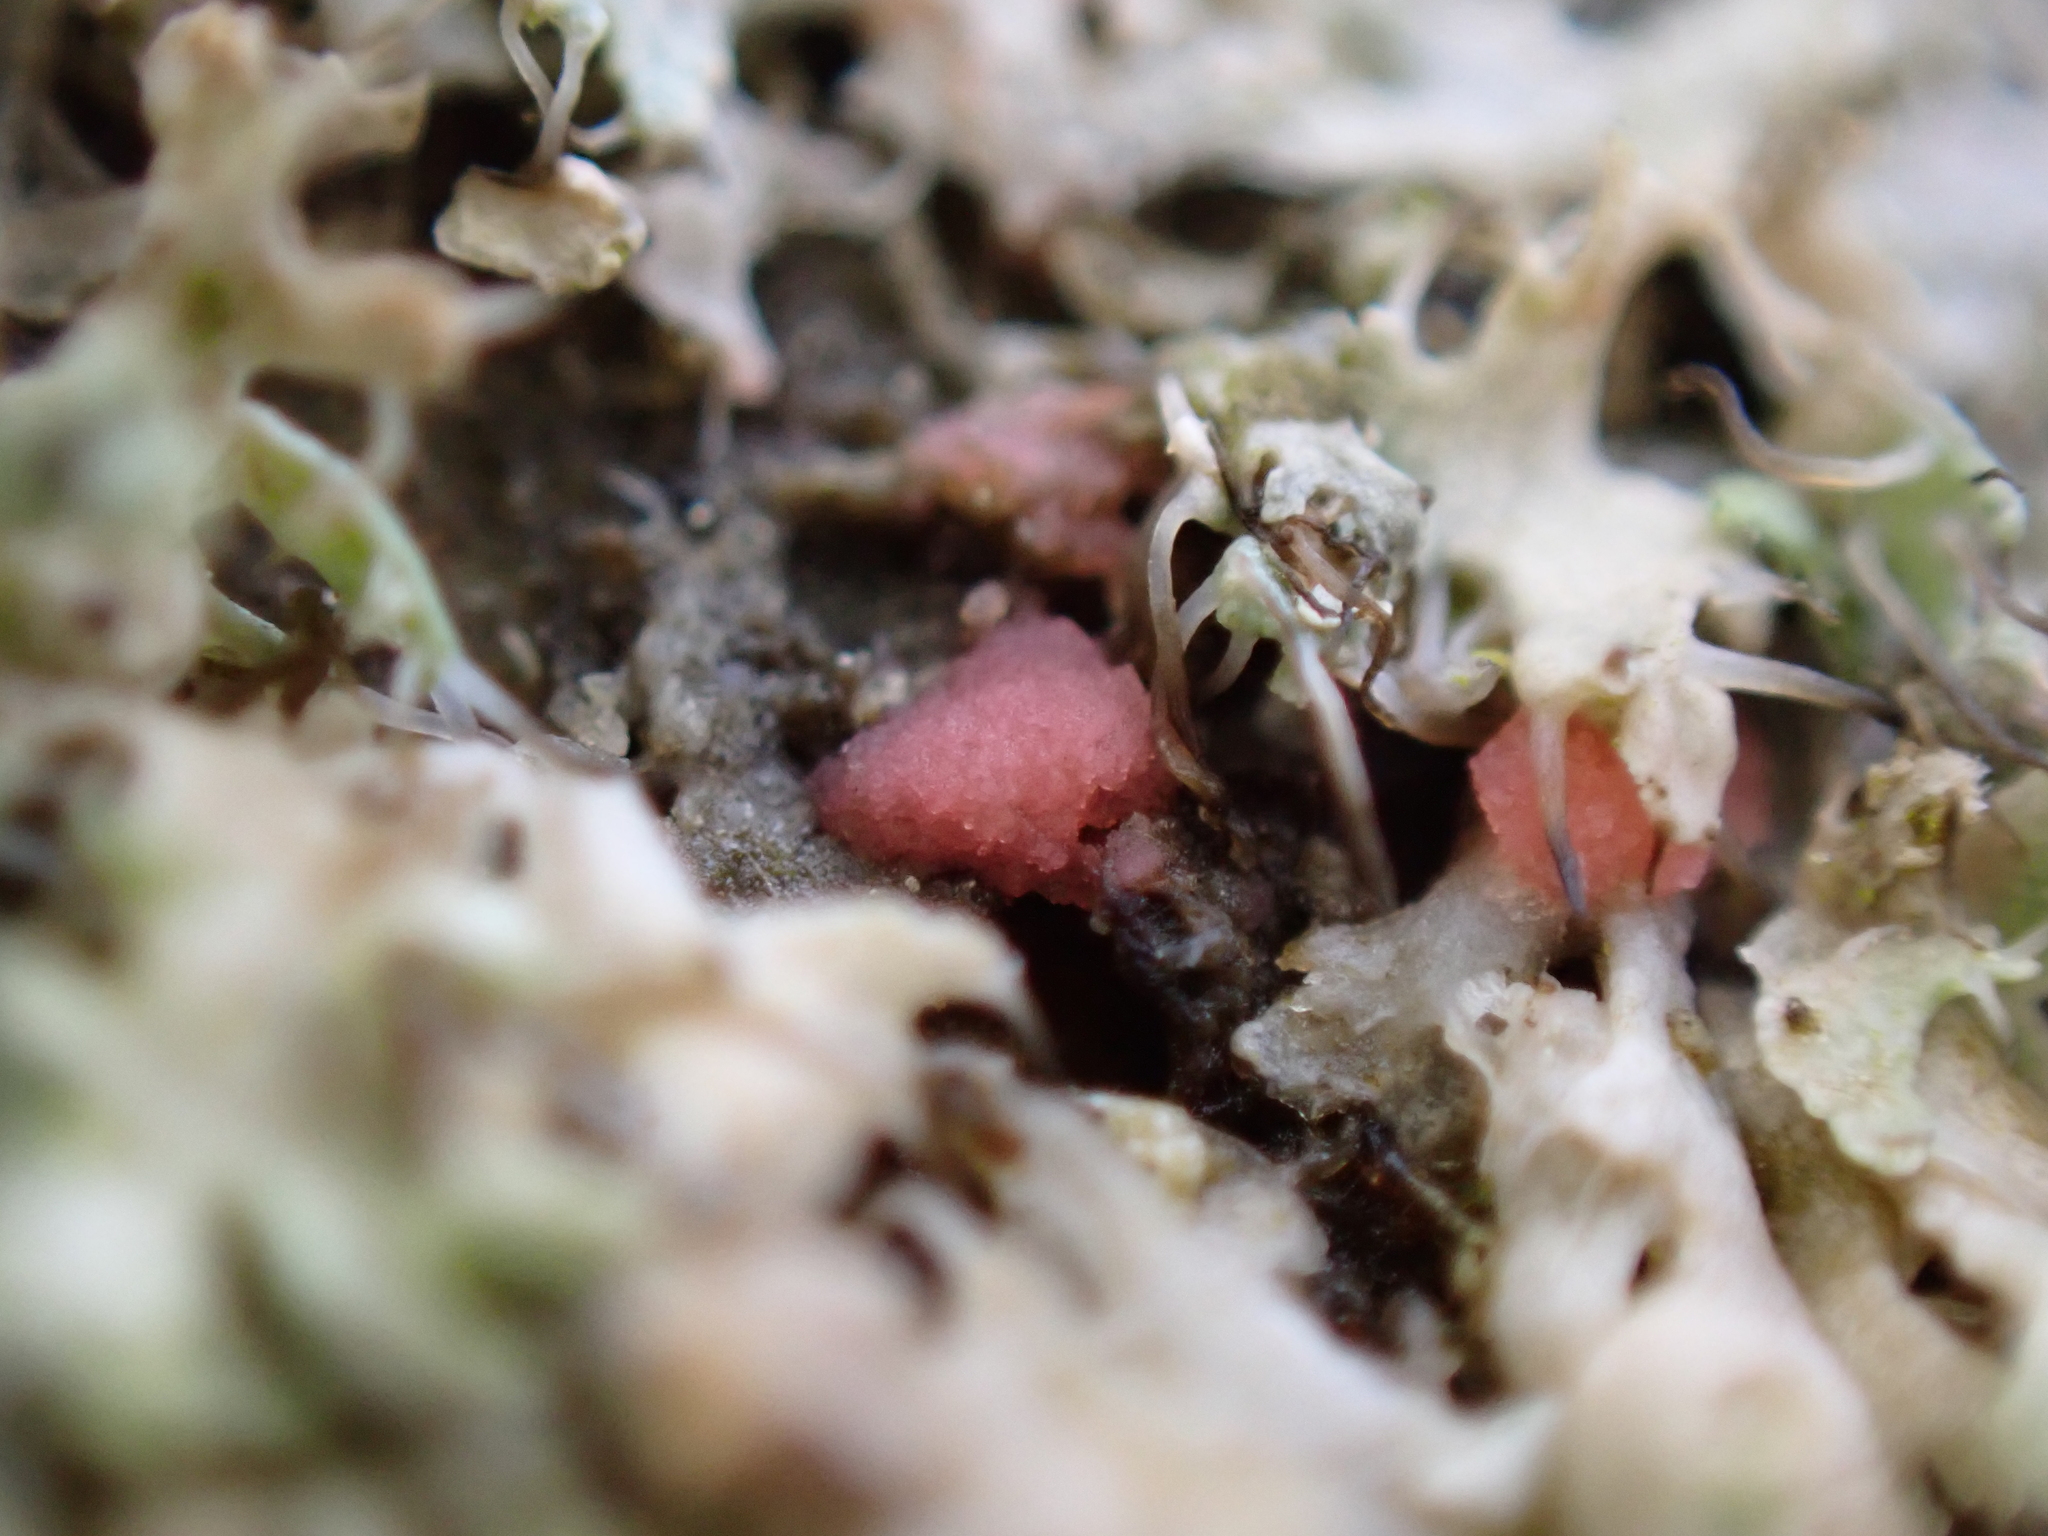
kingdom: Fungi
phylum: Ascomycota
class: Sordariomycetes
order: Hypocreales
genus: Illosporiopsis
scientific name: Illosporiopsis christiansenii
